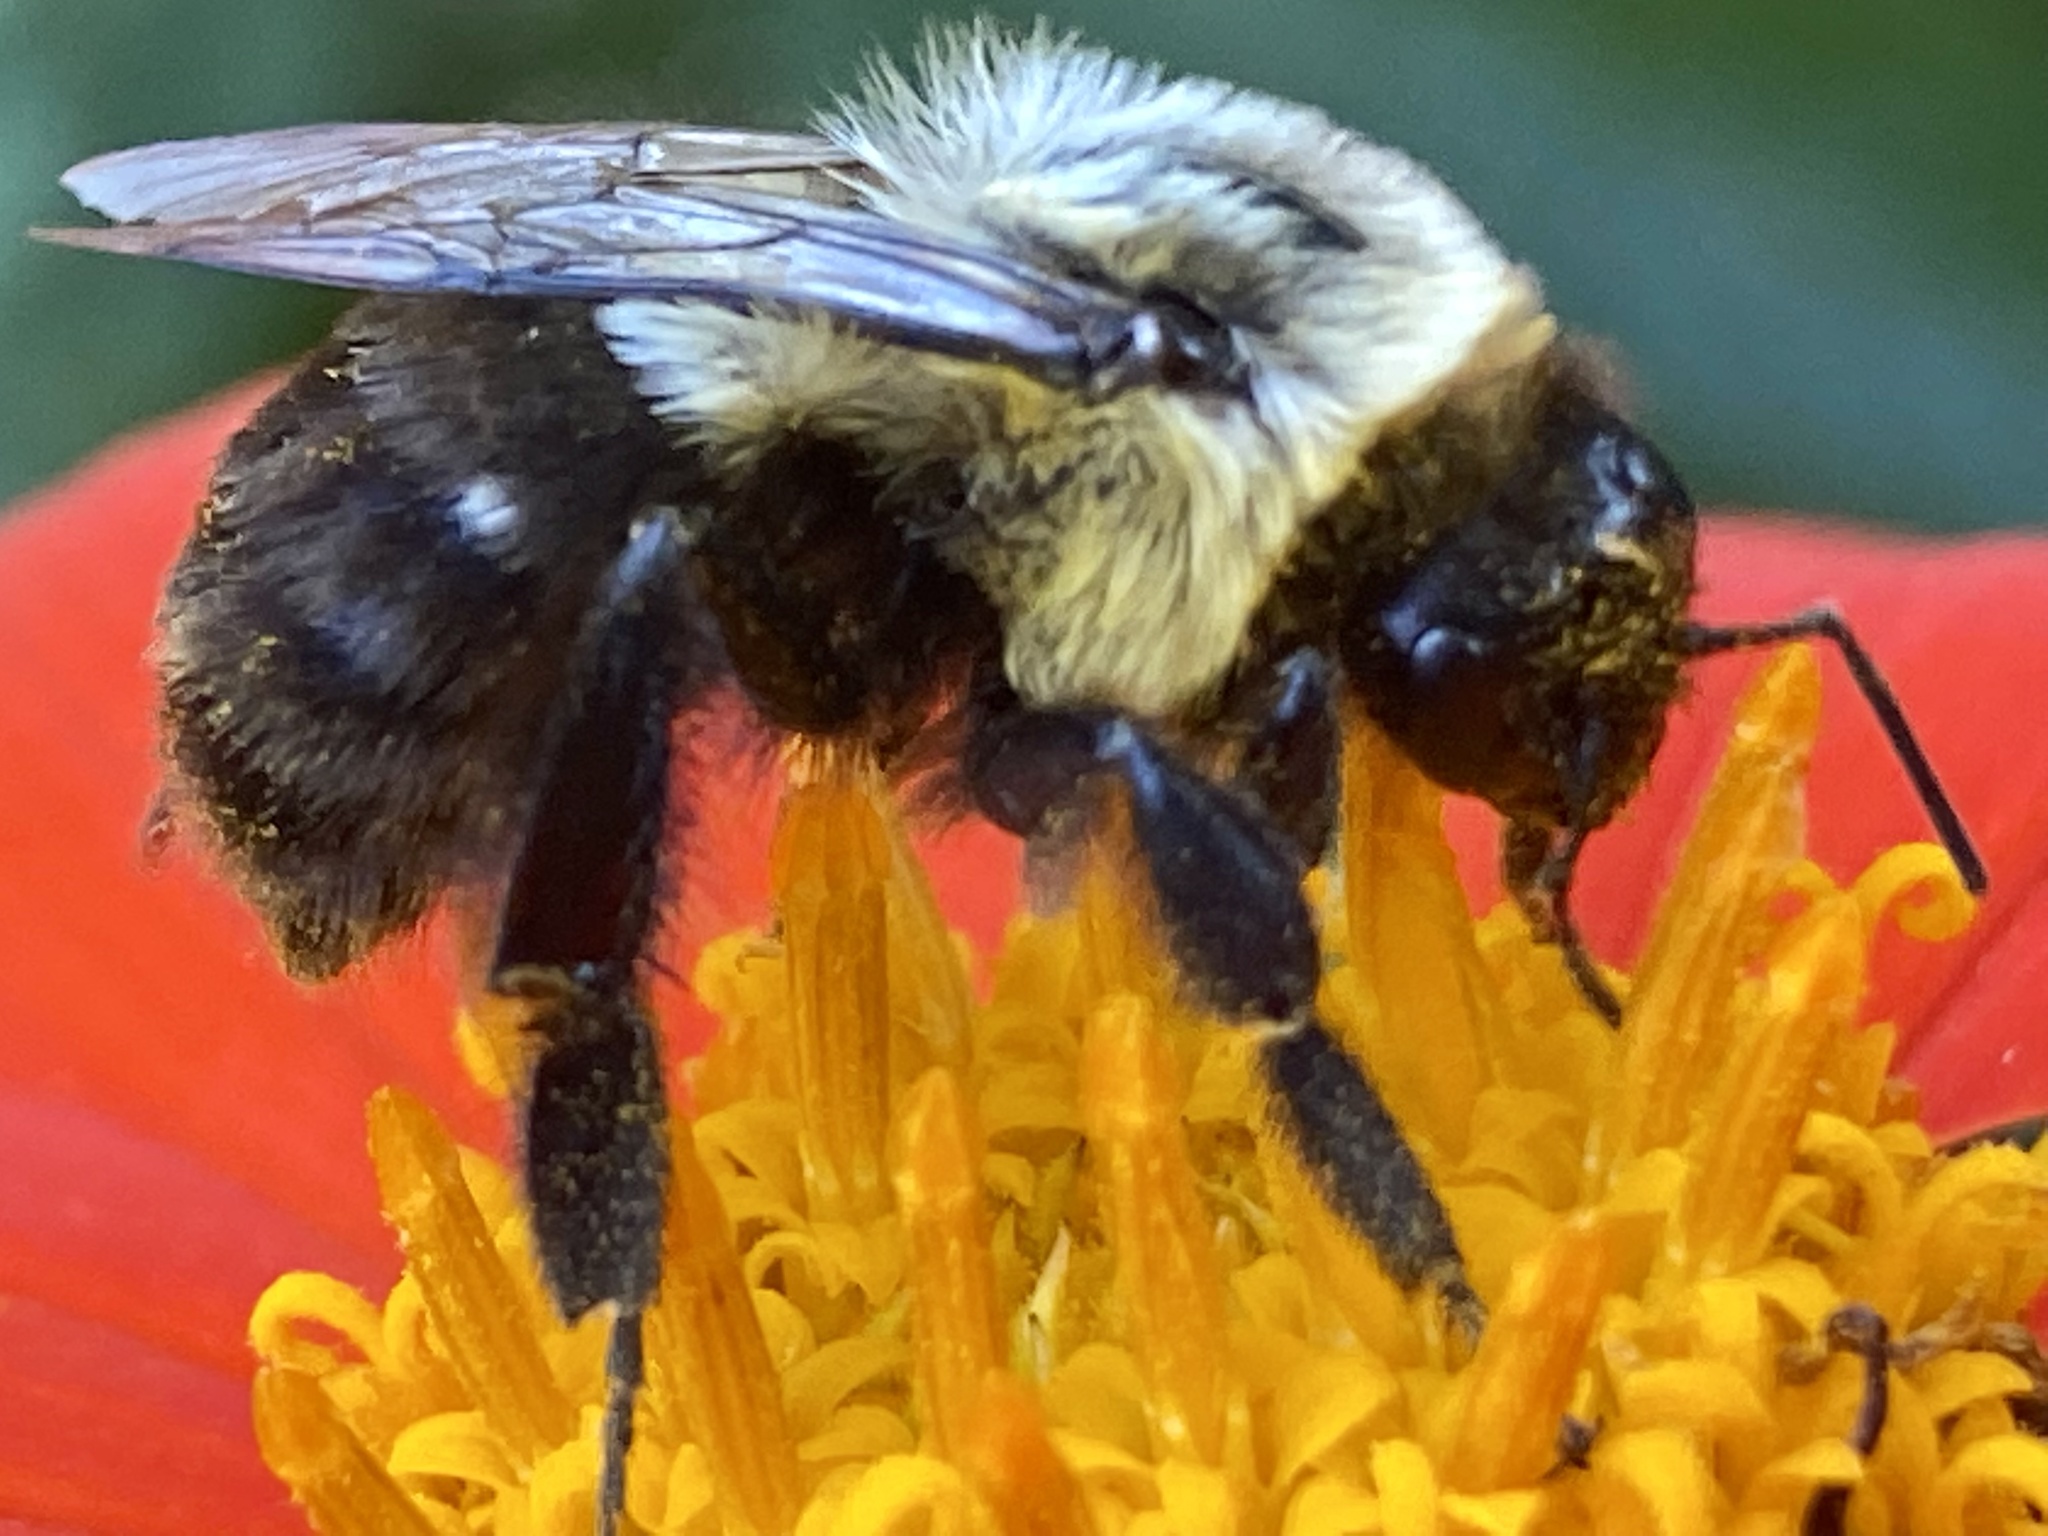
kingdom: Animalia
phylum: Arthropoda
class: Insecta
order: Hymenoptera
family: Apidae
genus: Bombus
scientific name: Bombus impatiens
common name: Common eastern bumble bee
